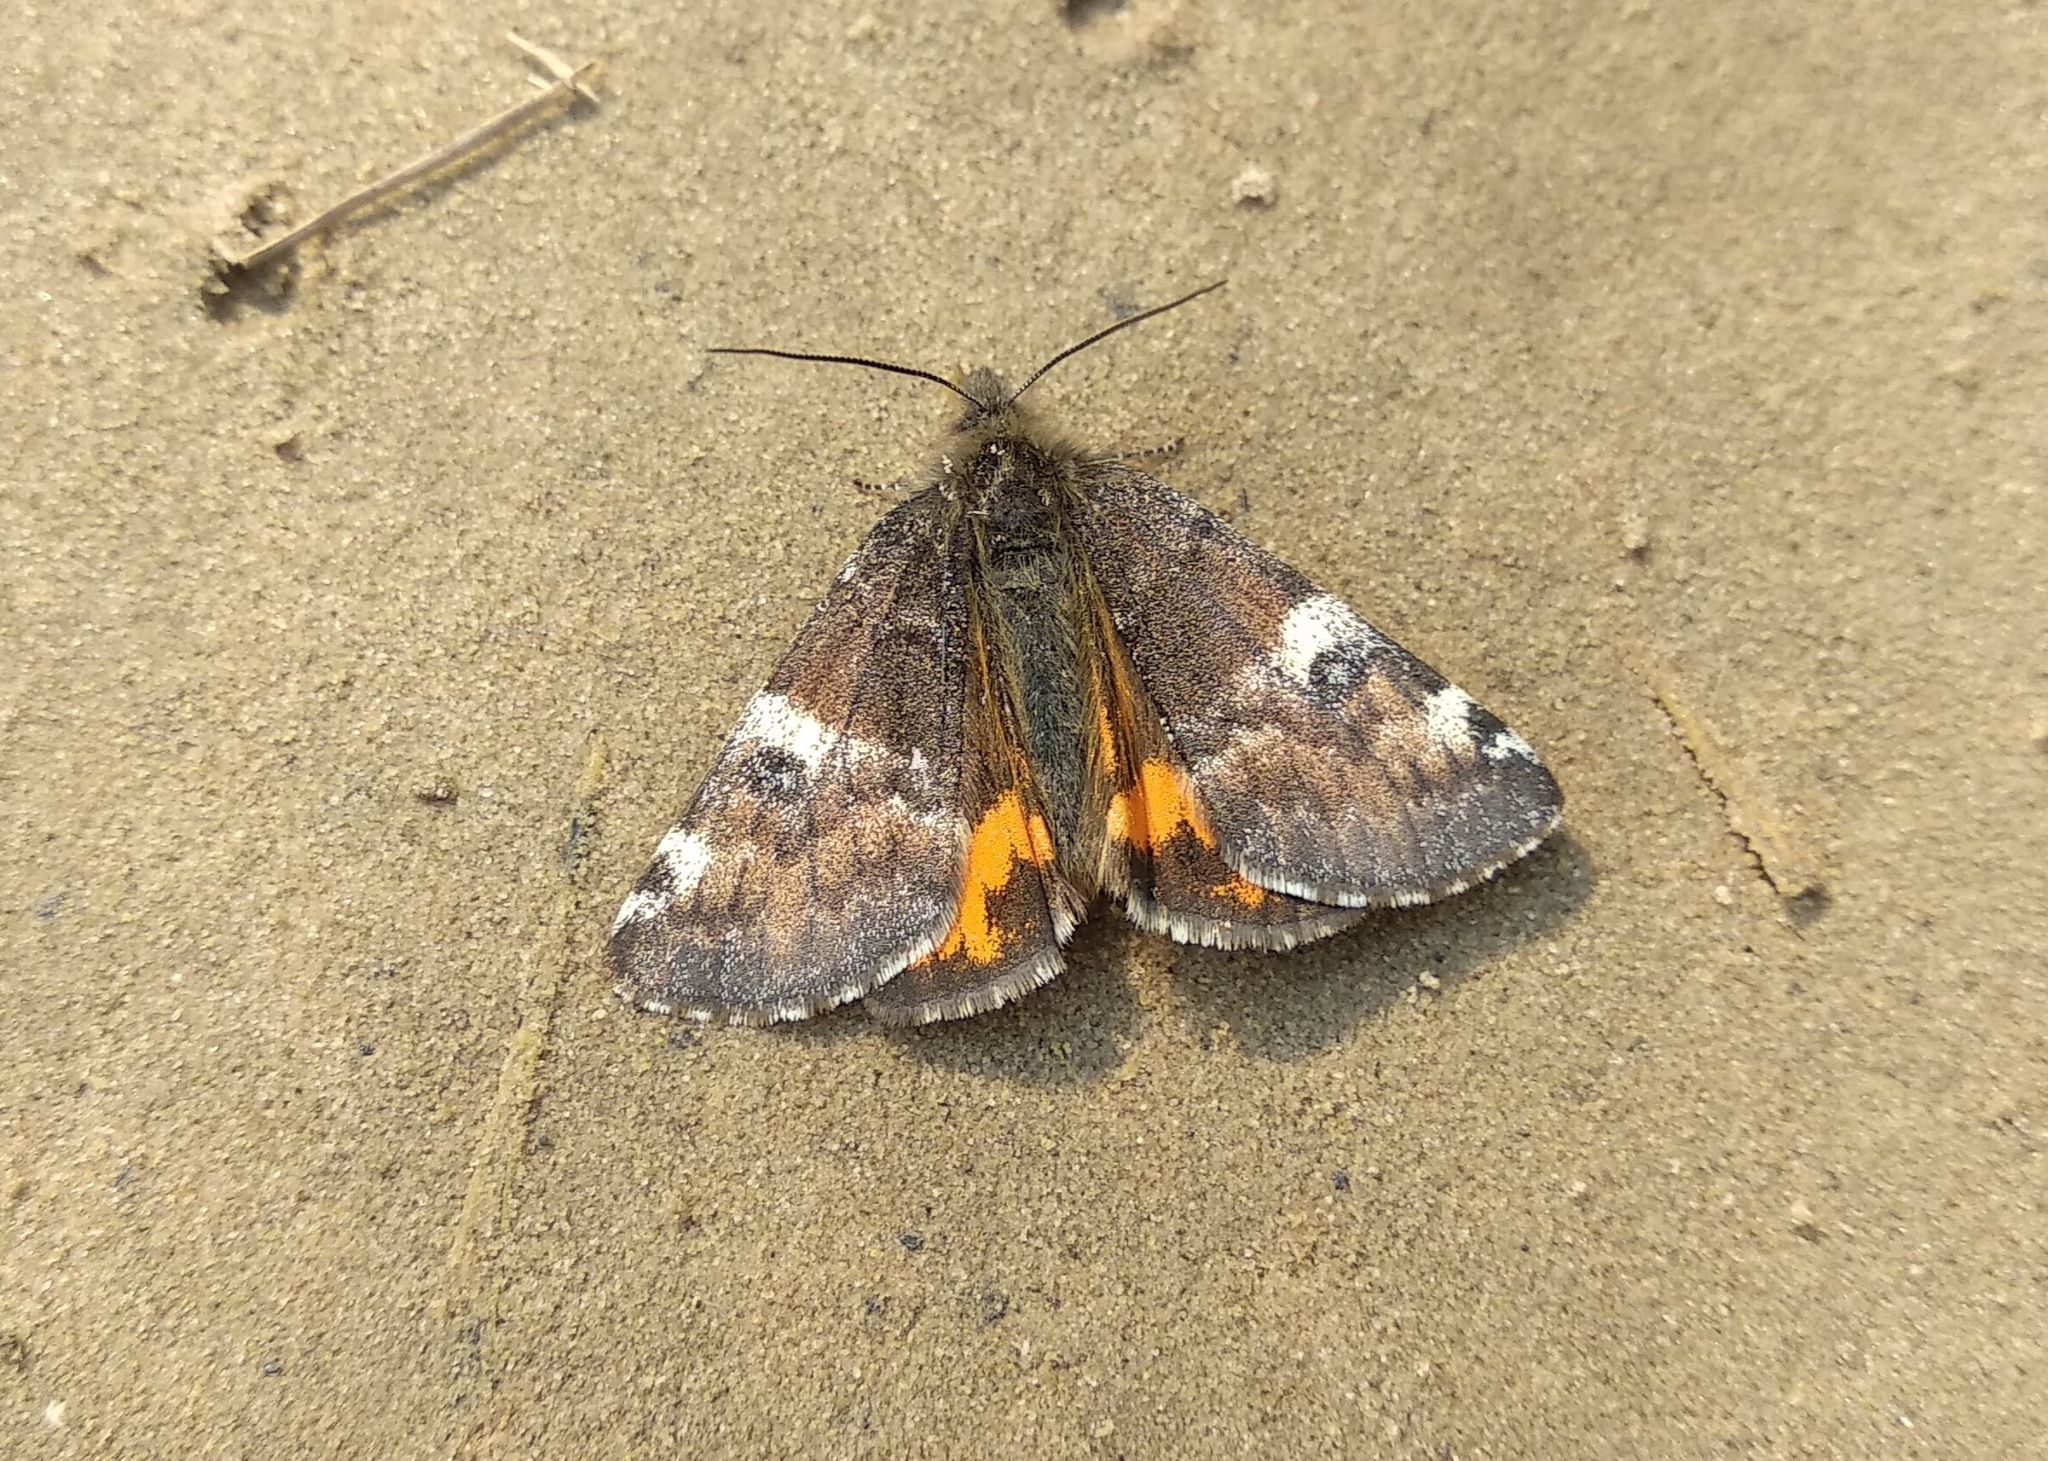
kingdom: Animalia
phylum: Arthropoda
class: Insecta
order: Lepidoptera
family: Geometridae
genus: Archiearis
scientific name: Archiearis parthenias
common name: Orange underwing
